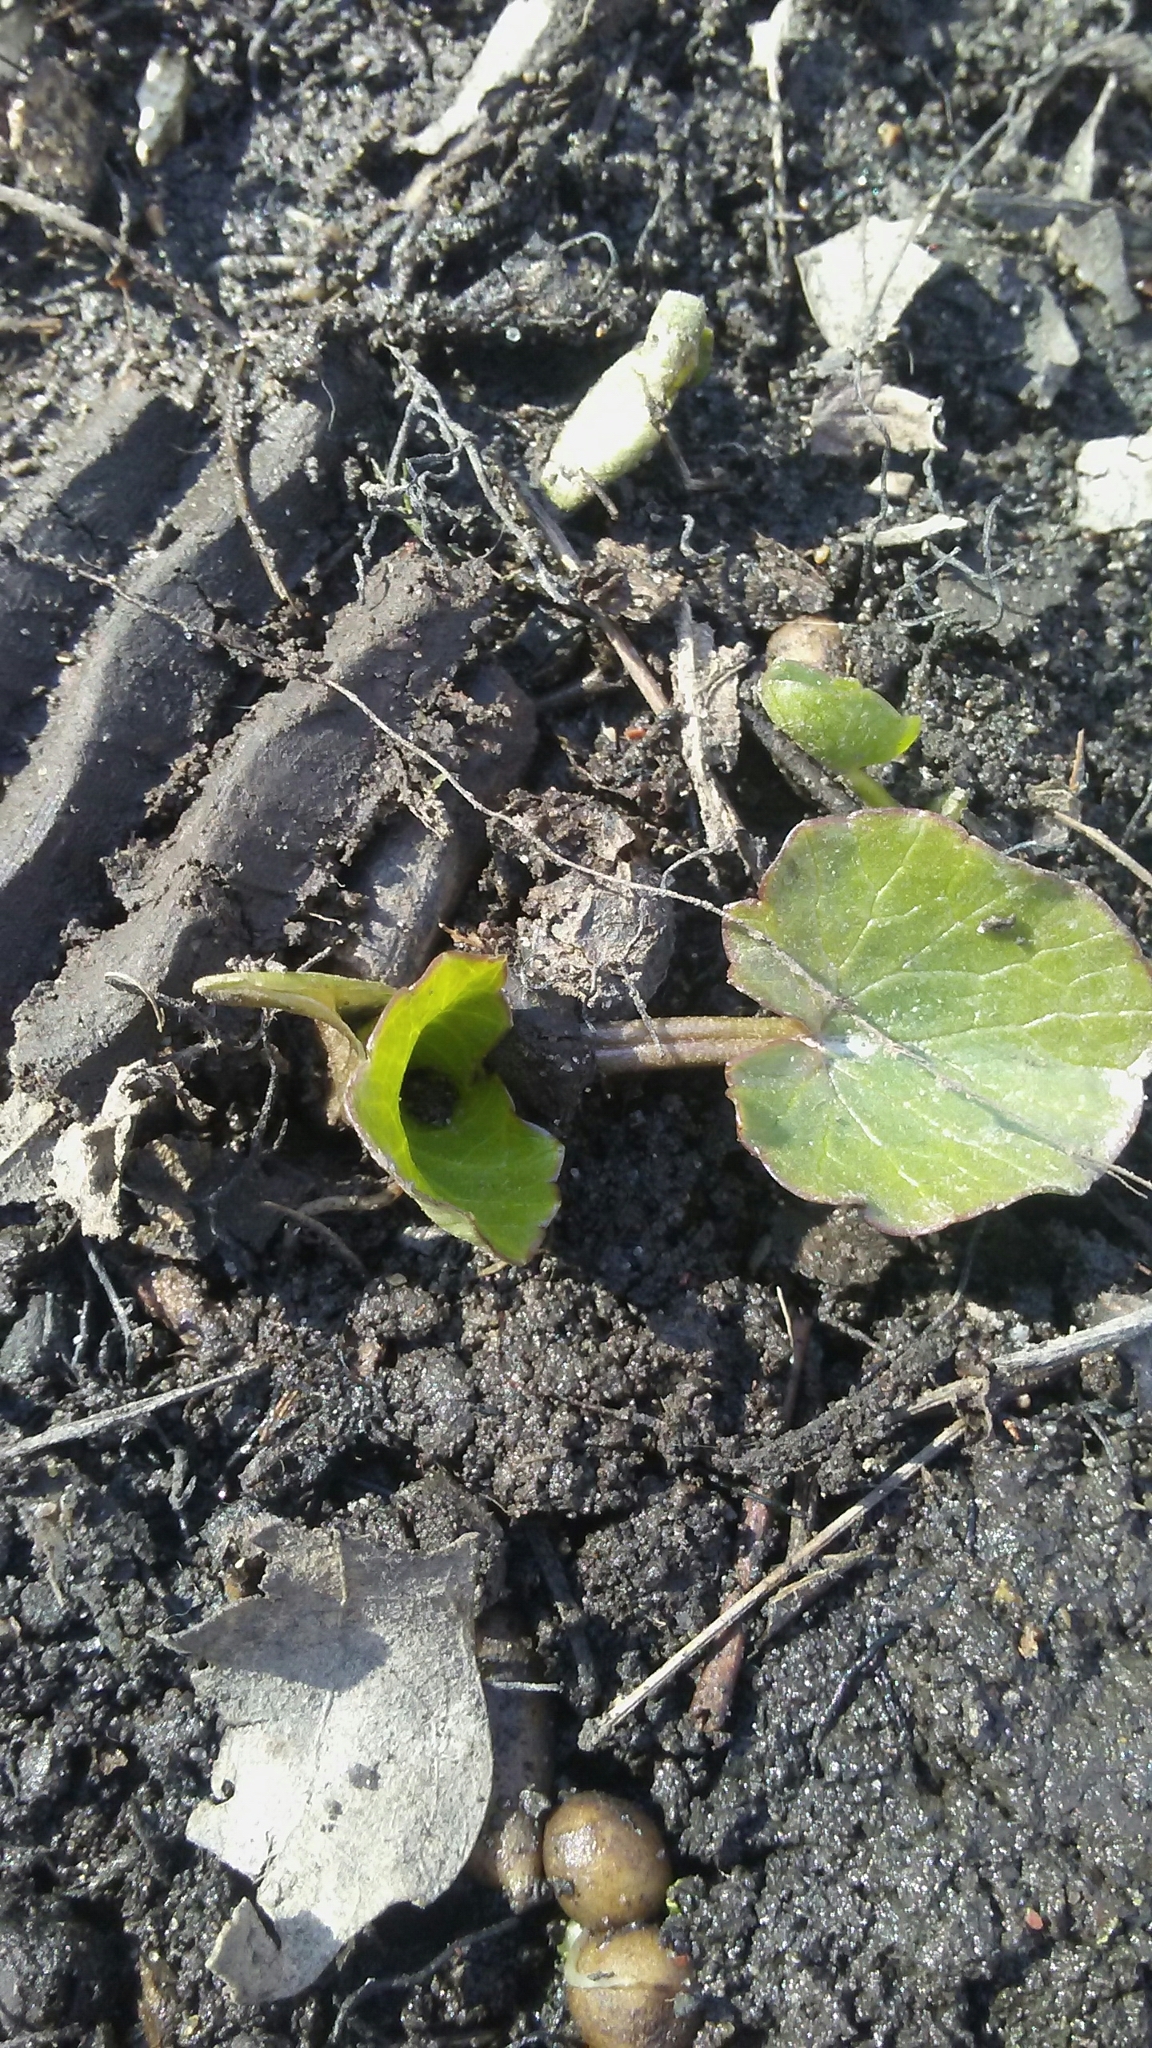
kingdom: Plantae
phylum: Tracheophyta
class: Magnoliopsida
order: Ranunculales
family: Ranunculaceae
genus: Ficaria
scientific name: Ficaria verna
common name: Lesser celandine
